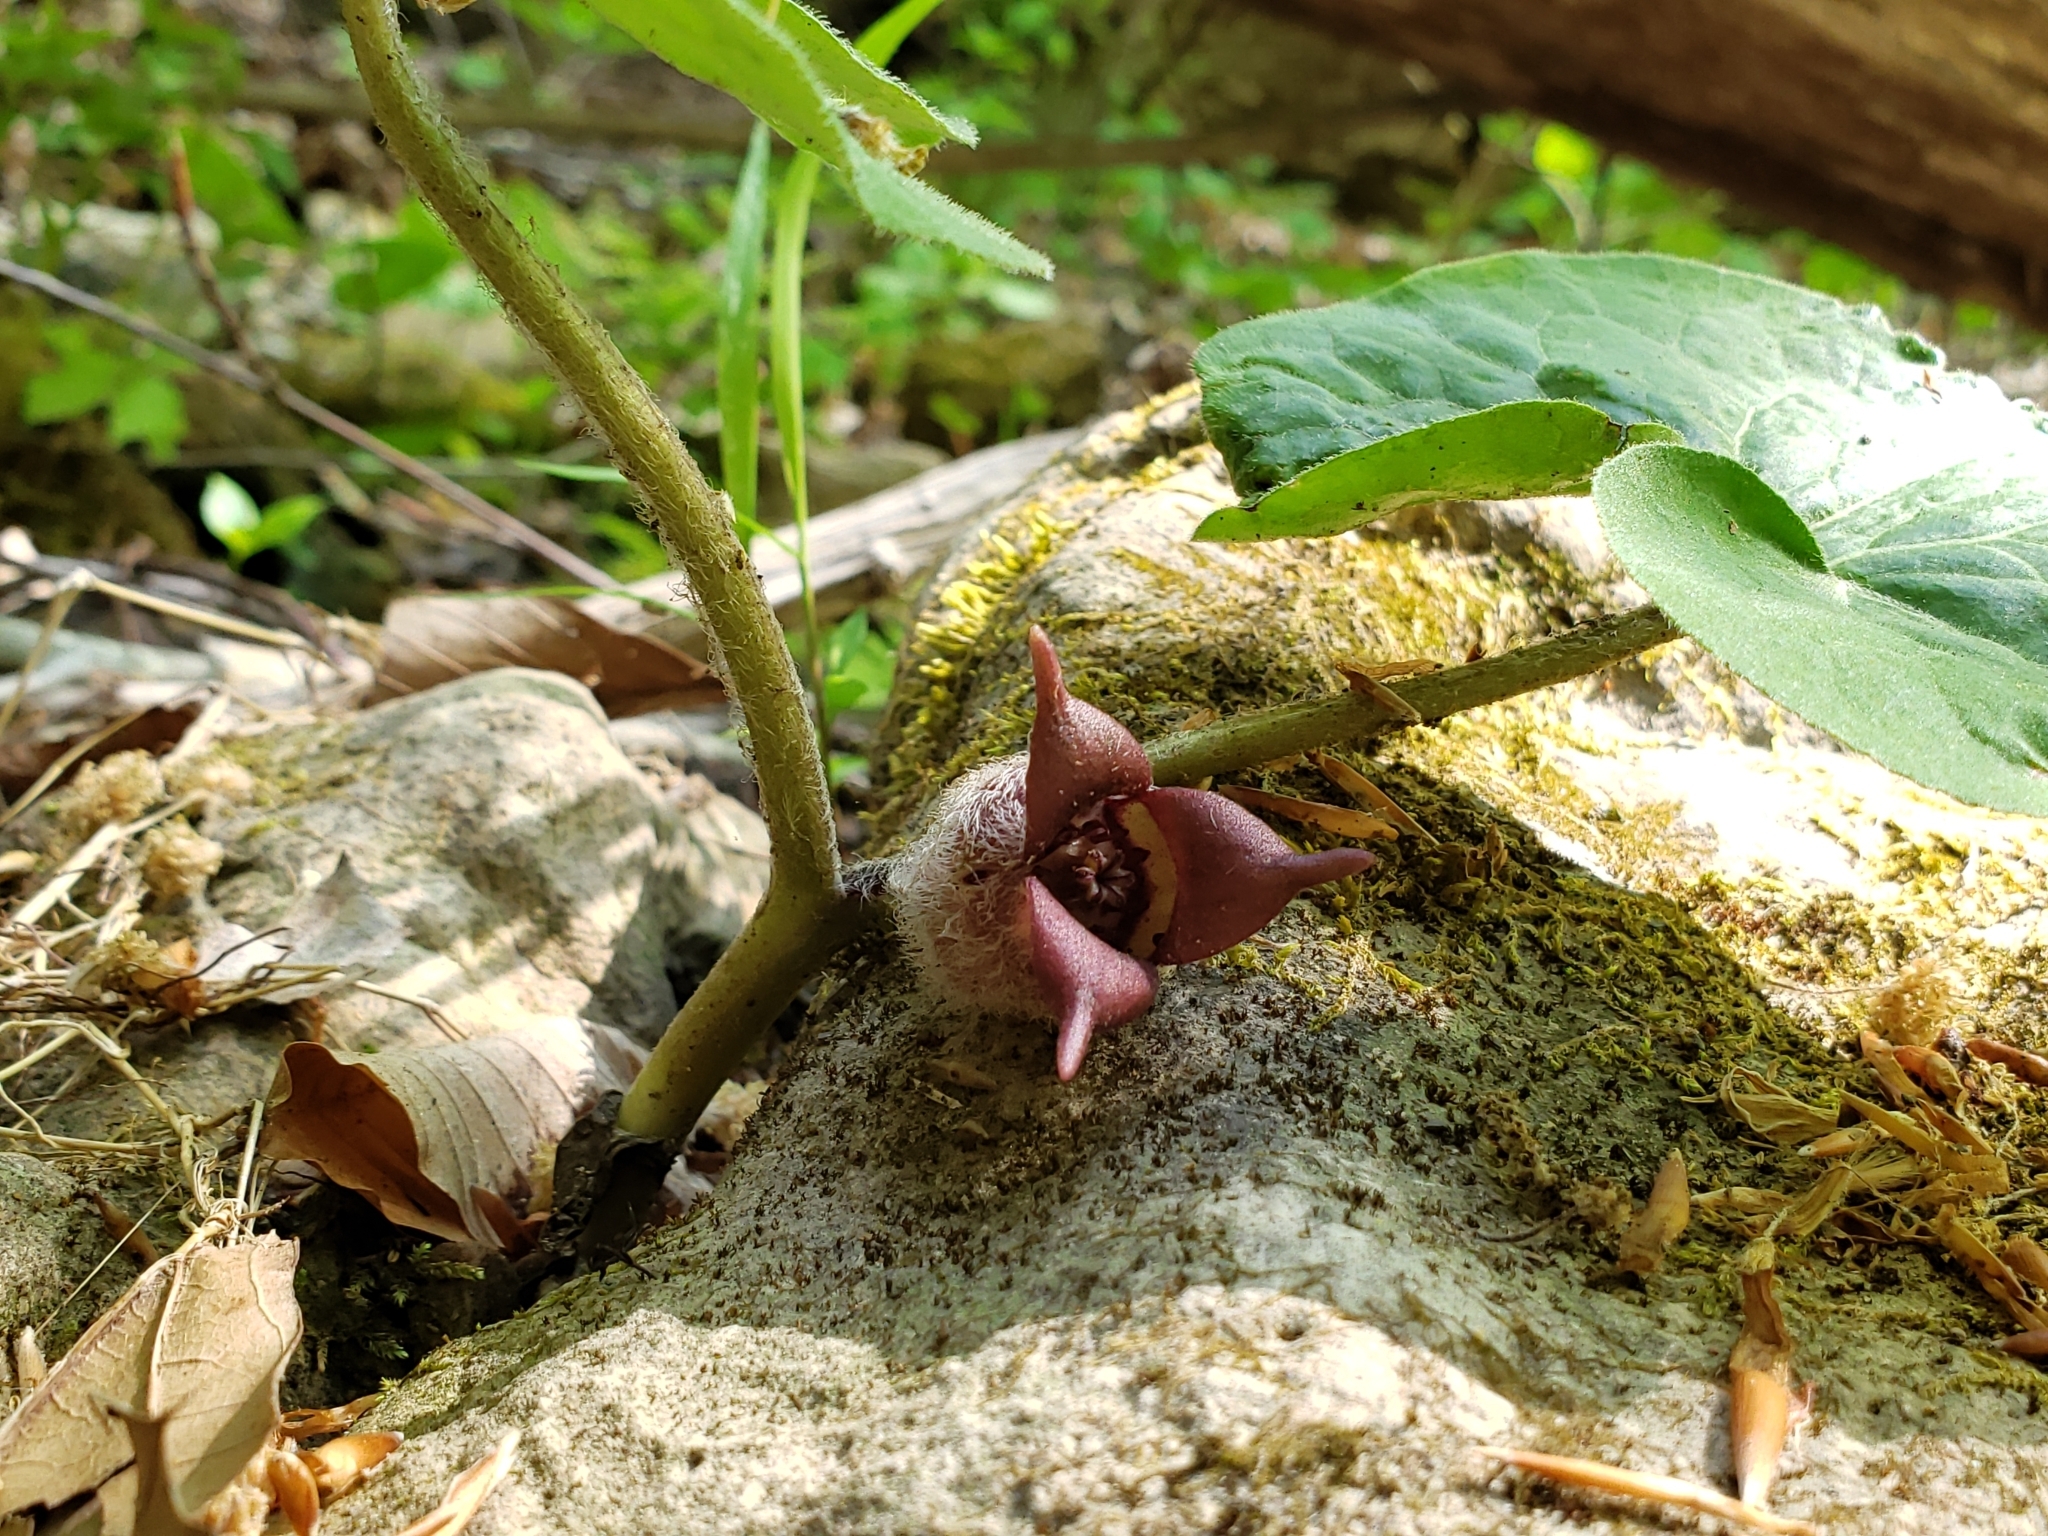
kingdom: Plantae
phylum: Tracheophyta
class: Magnoliopsida
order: Piperales
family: Aristolochiaceae
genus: Asarum
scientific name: Asarum canadense
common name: Wild ginger
